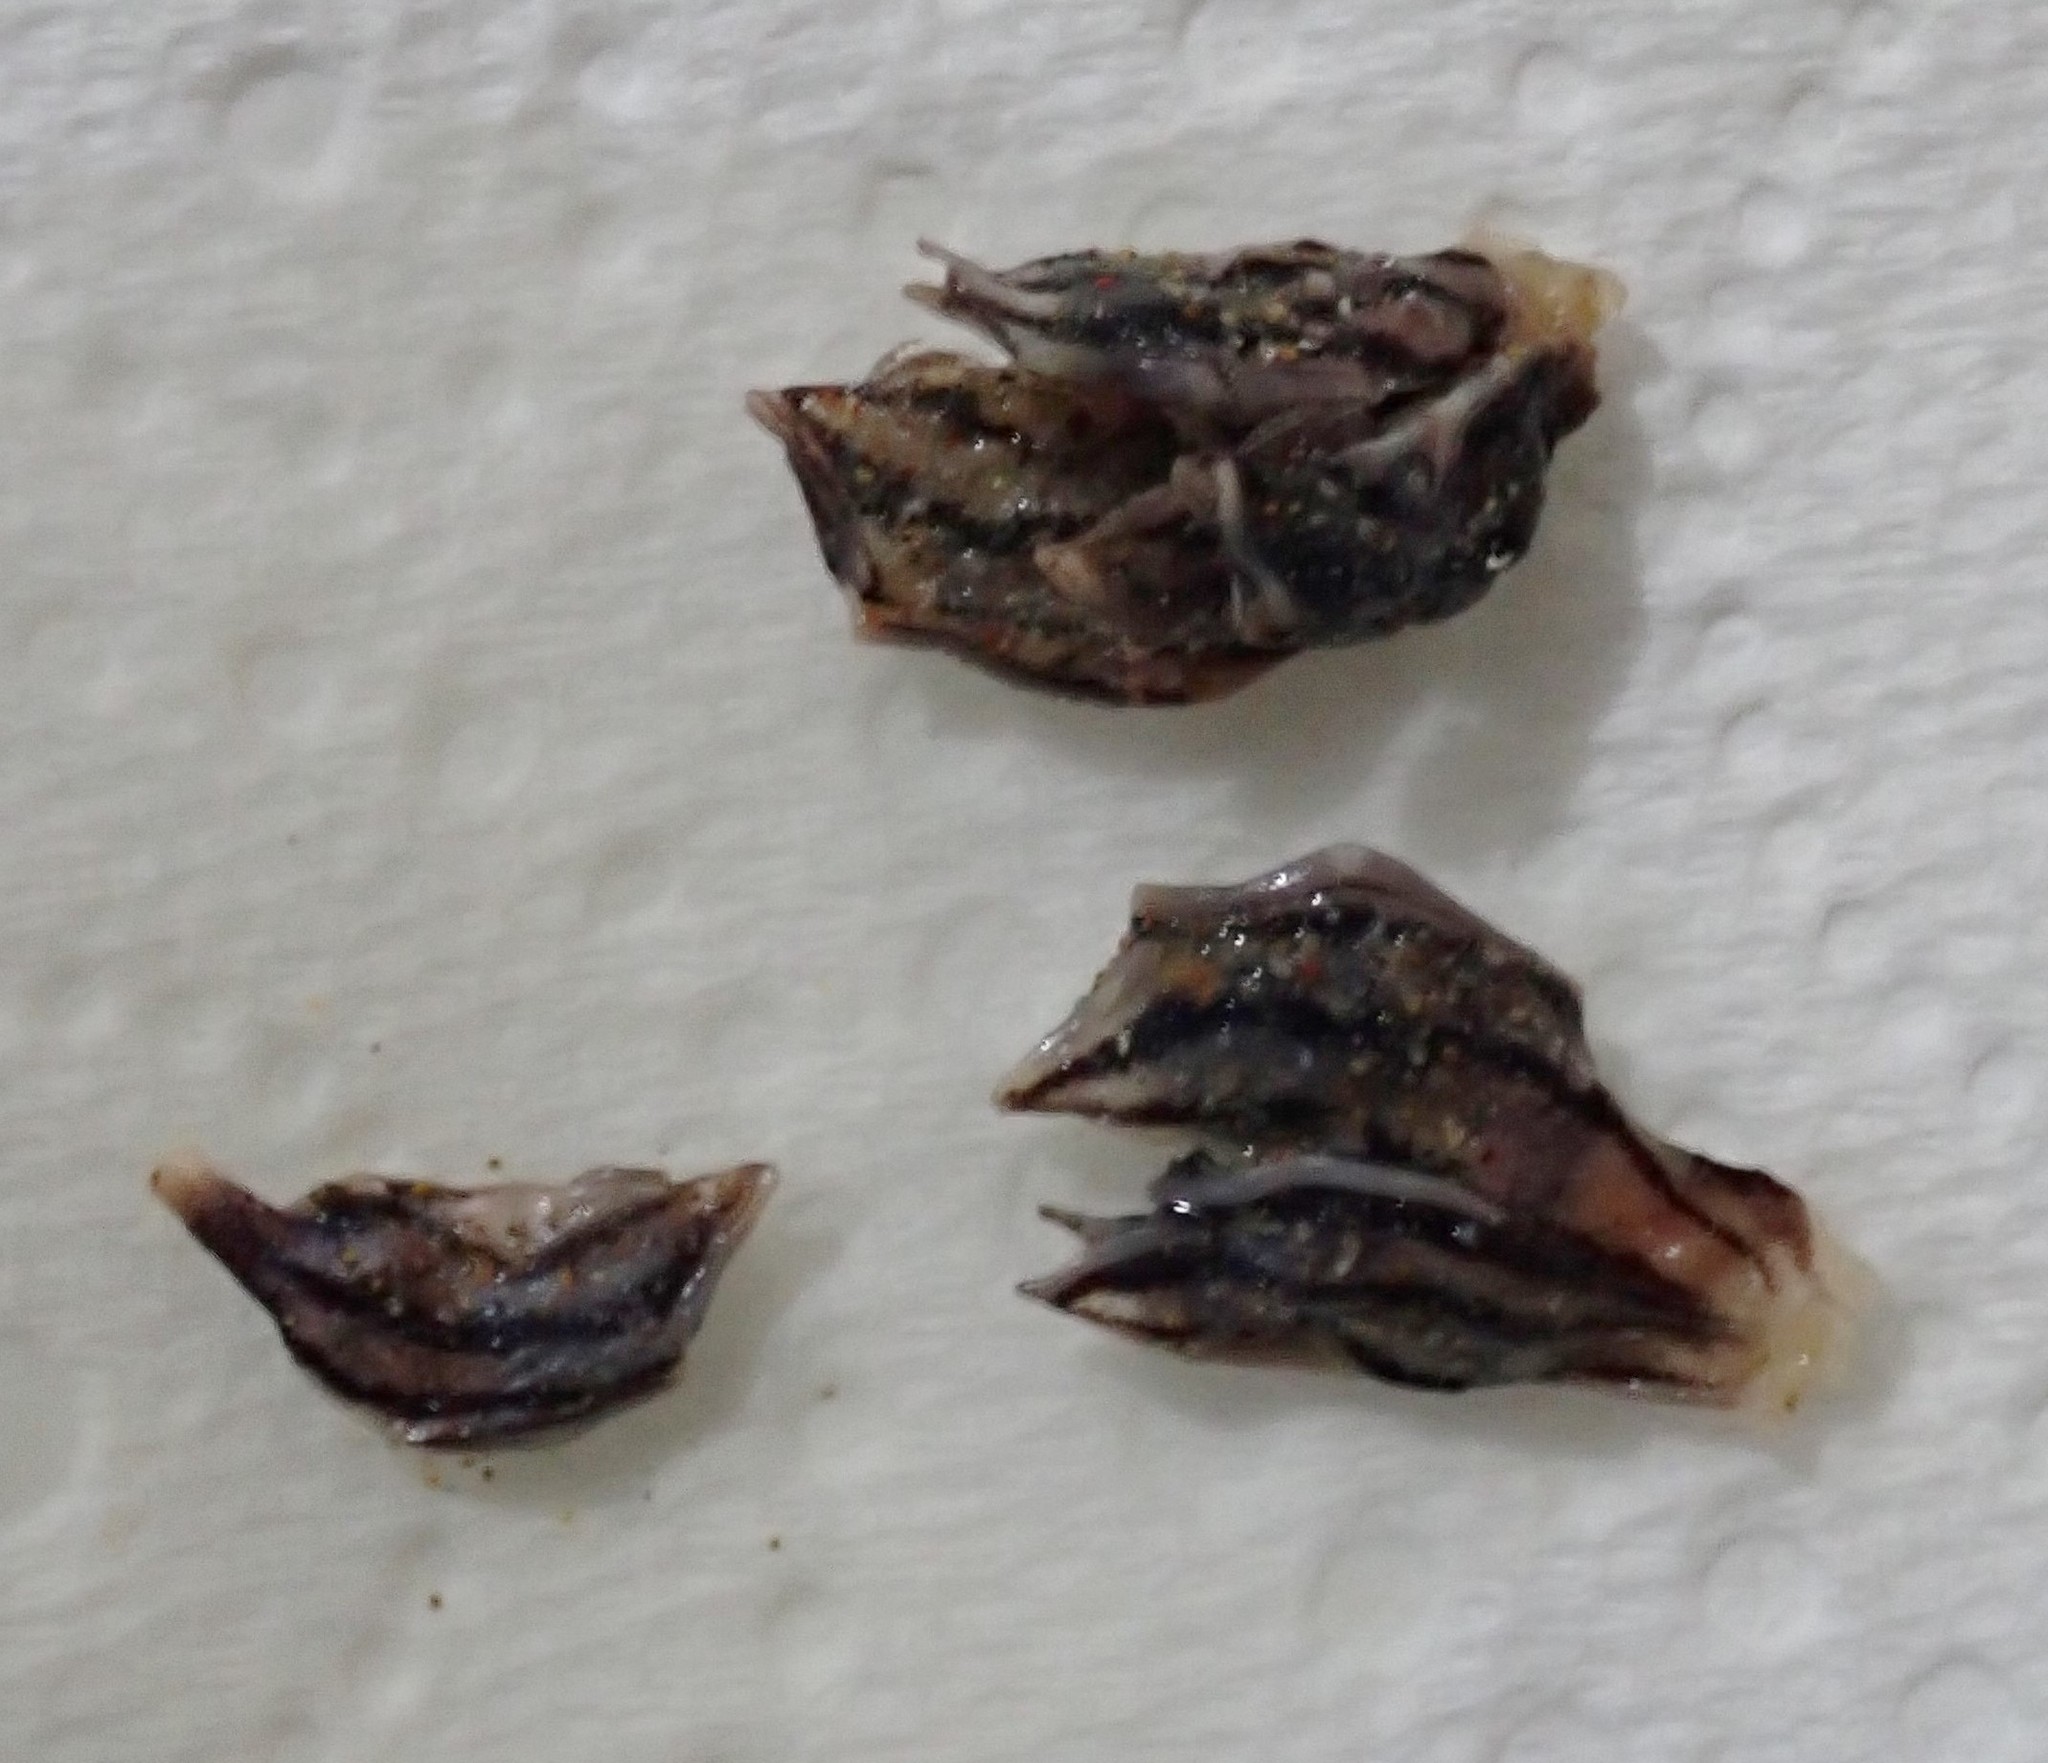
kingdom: Animalia
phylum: Arthropoda
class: Maxillopoda
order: Pedunculata
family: Lepadidae
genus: Conchoderma
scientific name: Conchoderma virgatum
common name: Striped gooseneck barnacle
